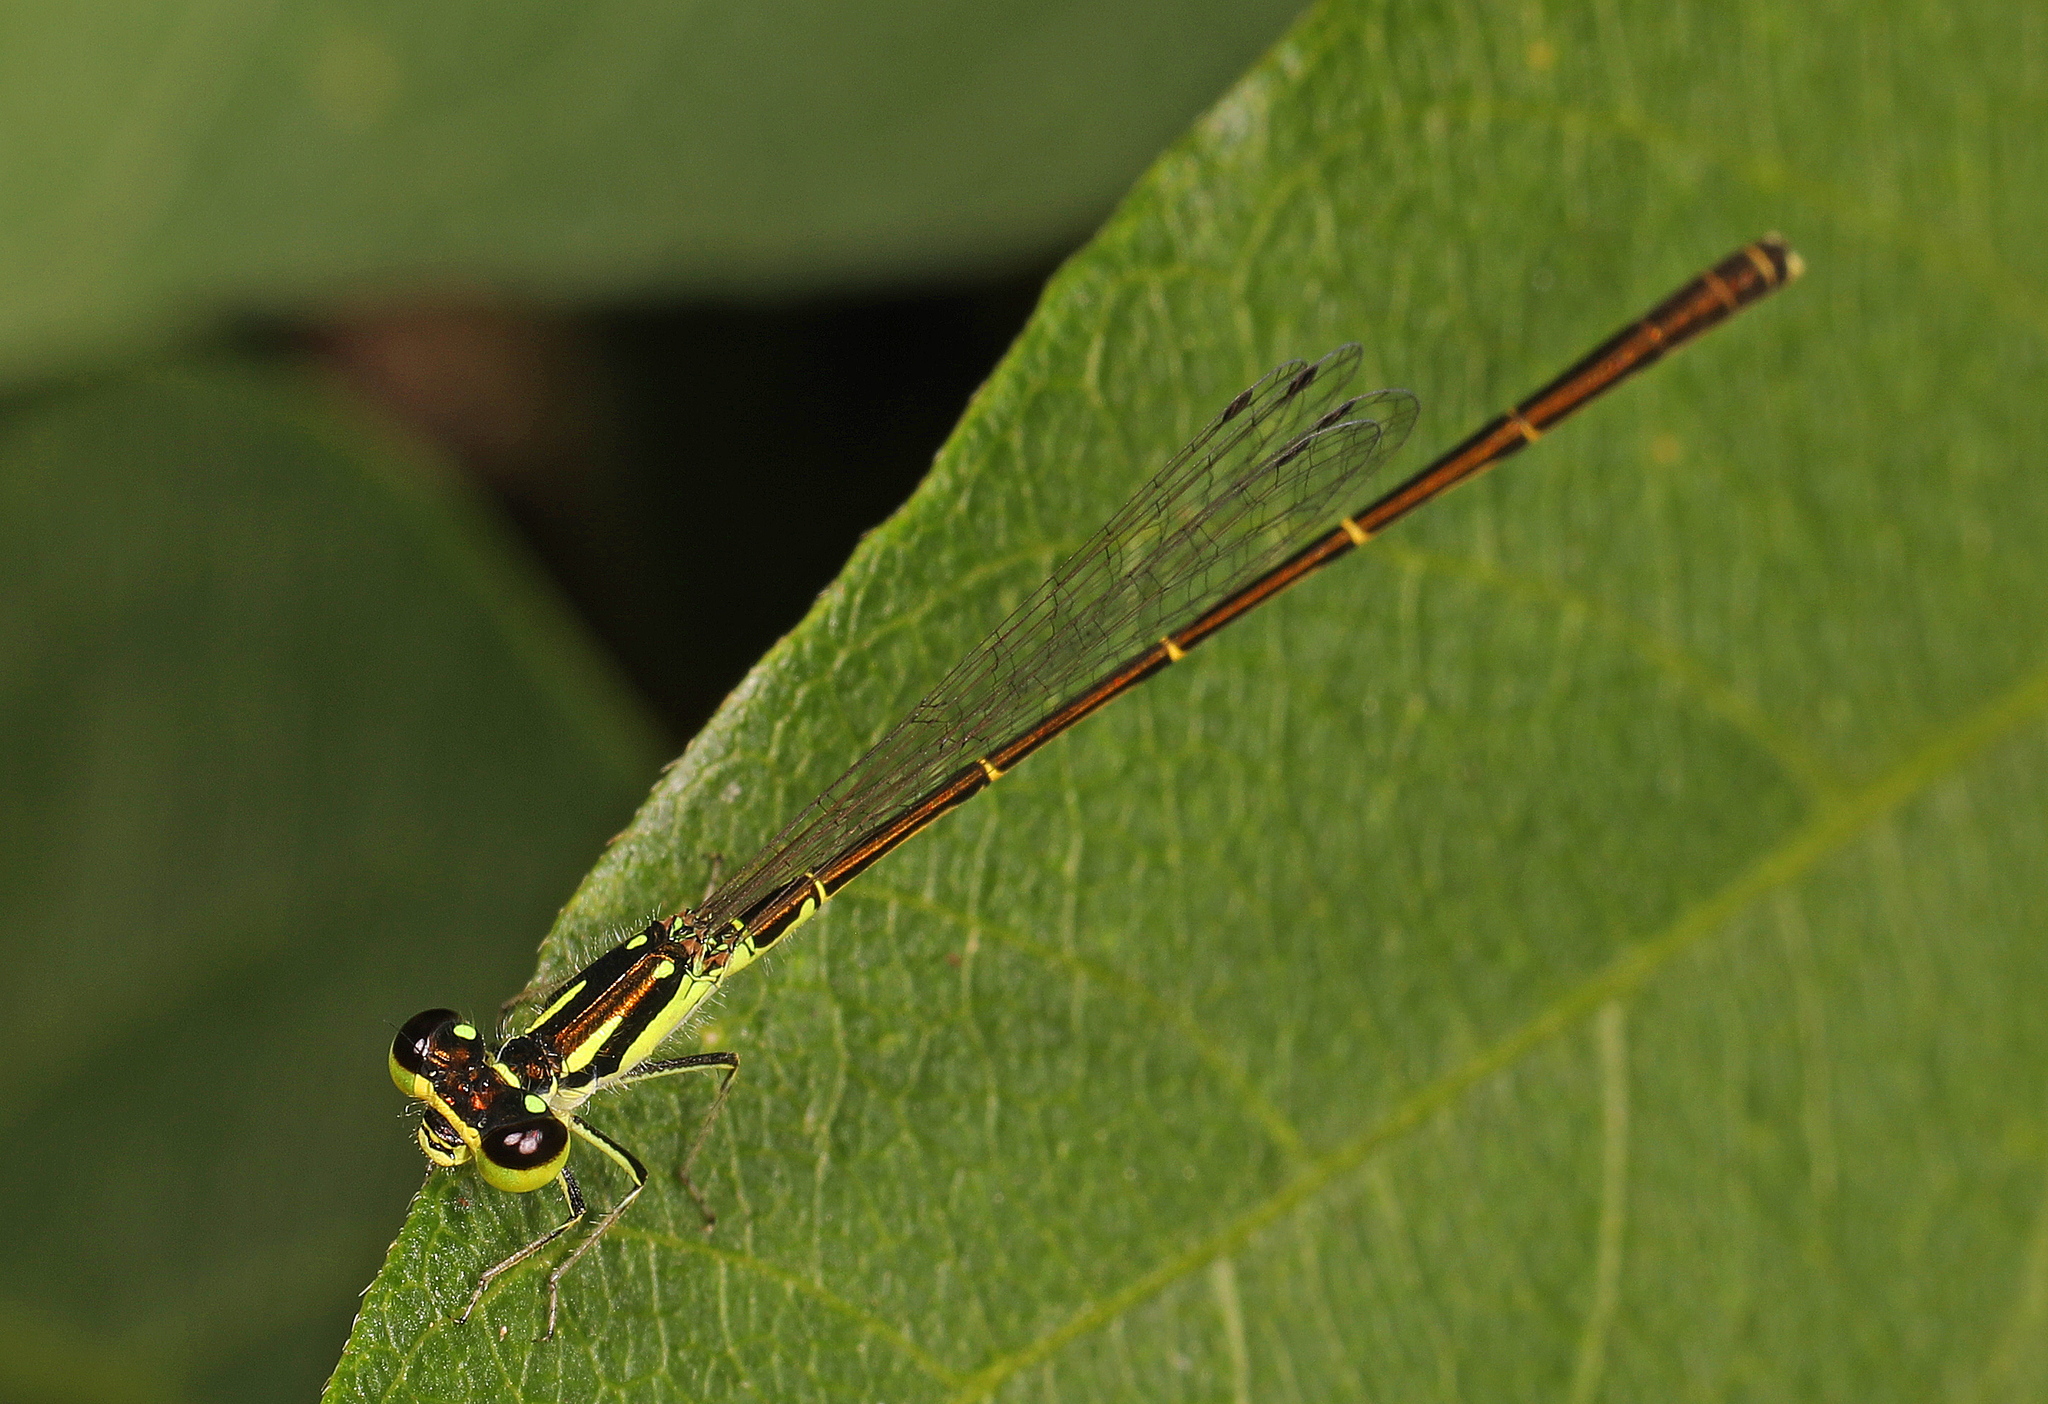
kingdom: Animalia
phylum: Arthropoda
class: Insecta
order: Odonata
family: Coenagrionidae
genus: Ischnura
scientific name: Ischnura posita
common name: Fragile forktail
